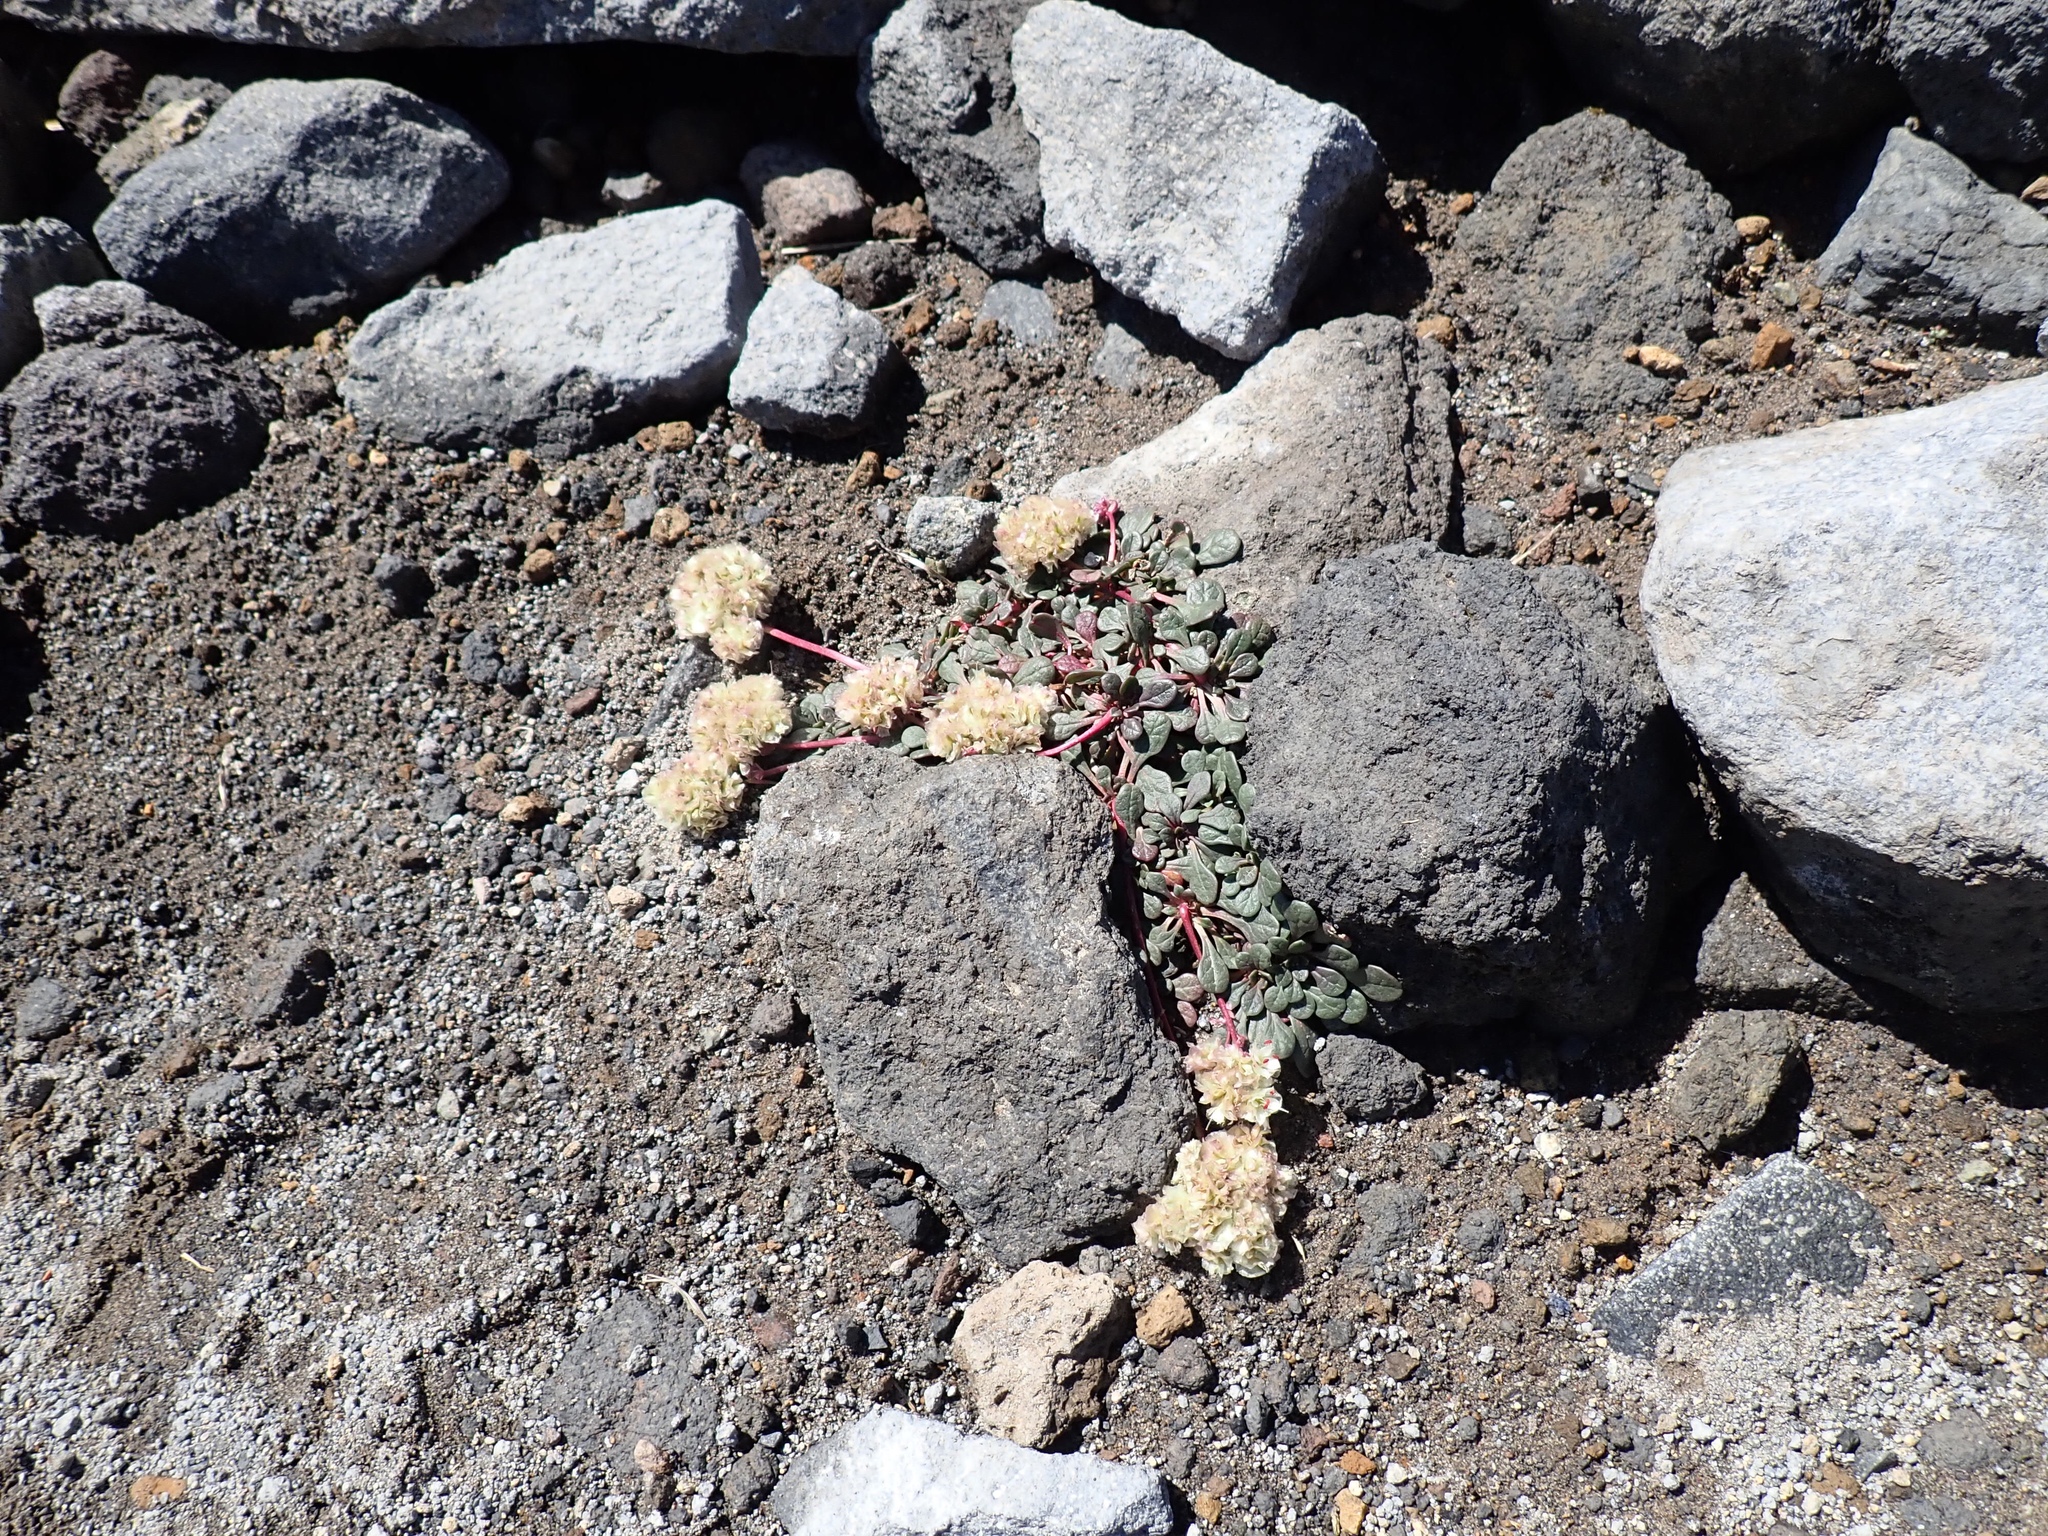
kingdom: Plantae
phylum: Tracheophyta
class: Magnoliopsida
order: Caryophyllales
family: Montiaceae
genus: Calyptridium
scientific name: Calyptridium umbellatum
